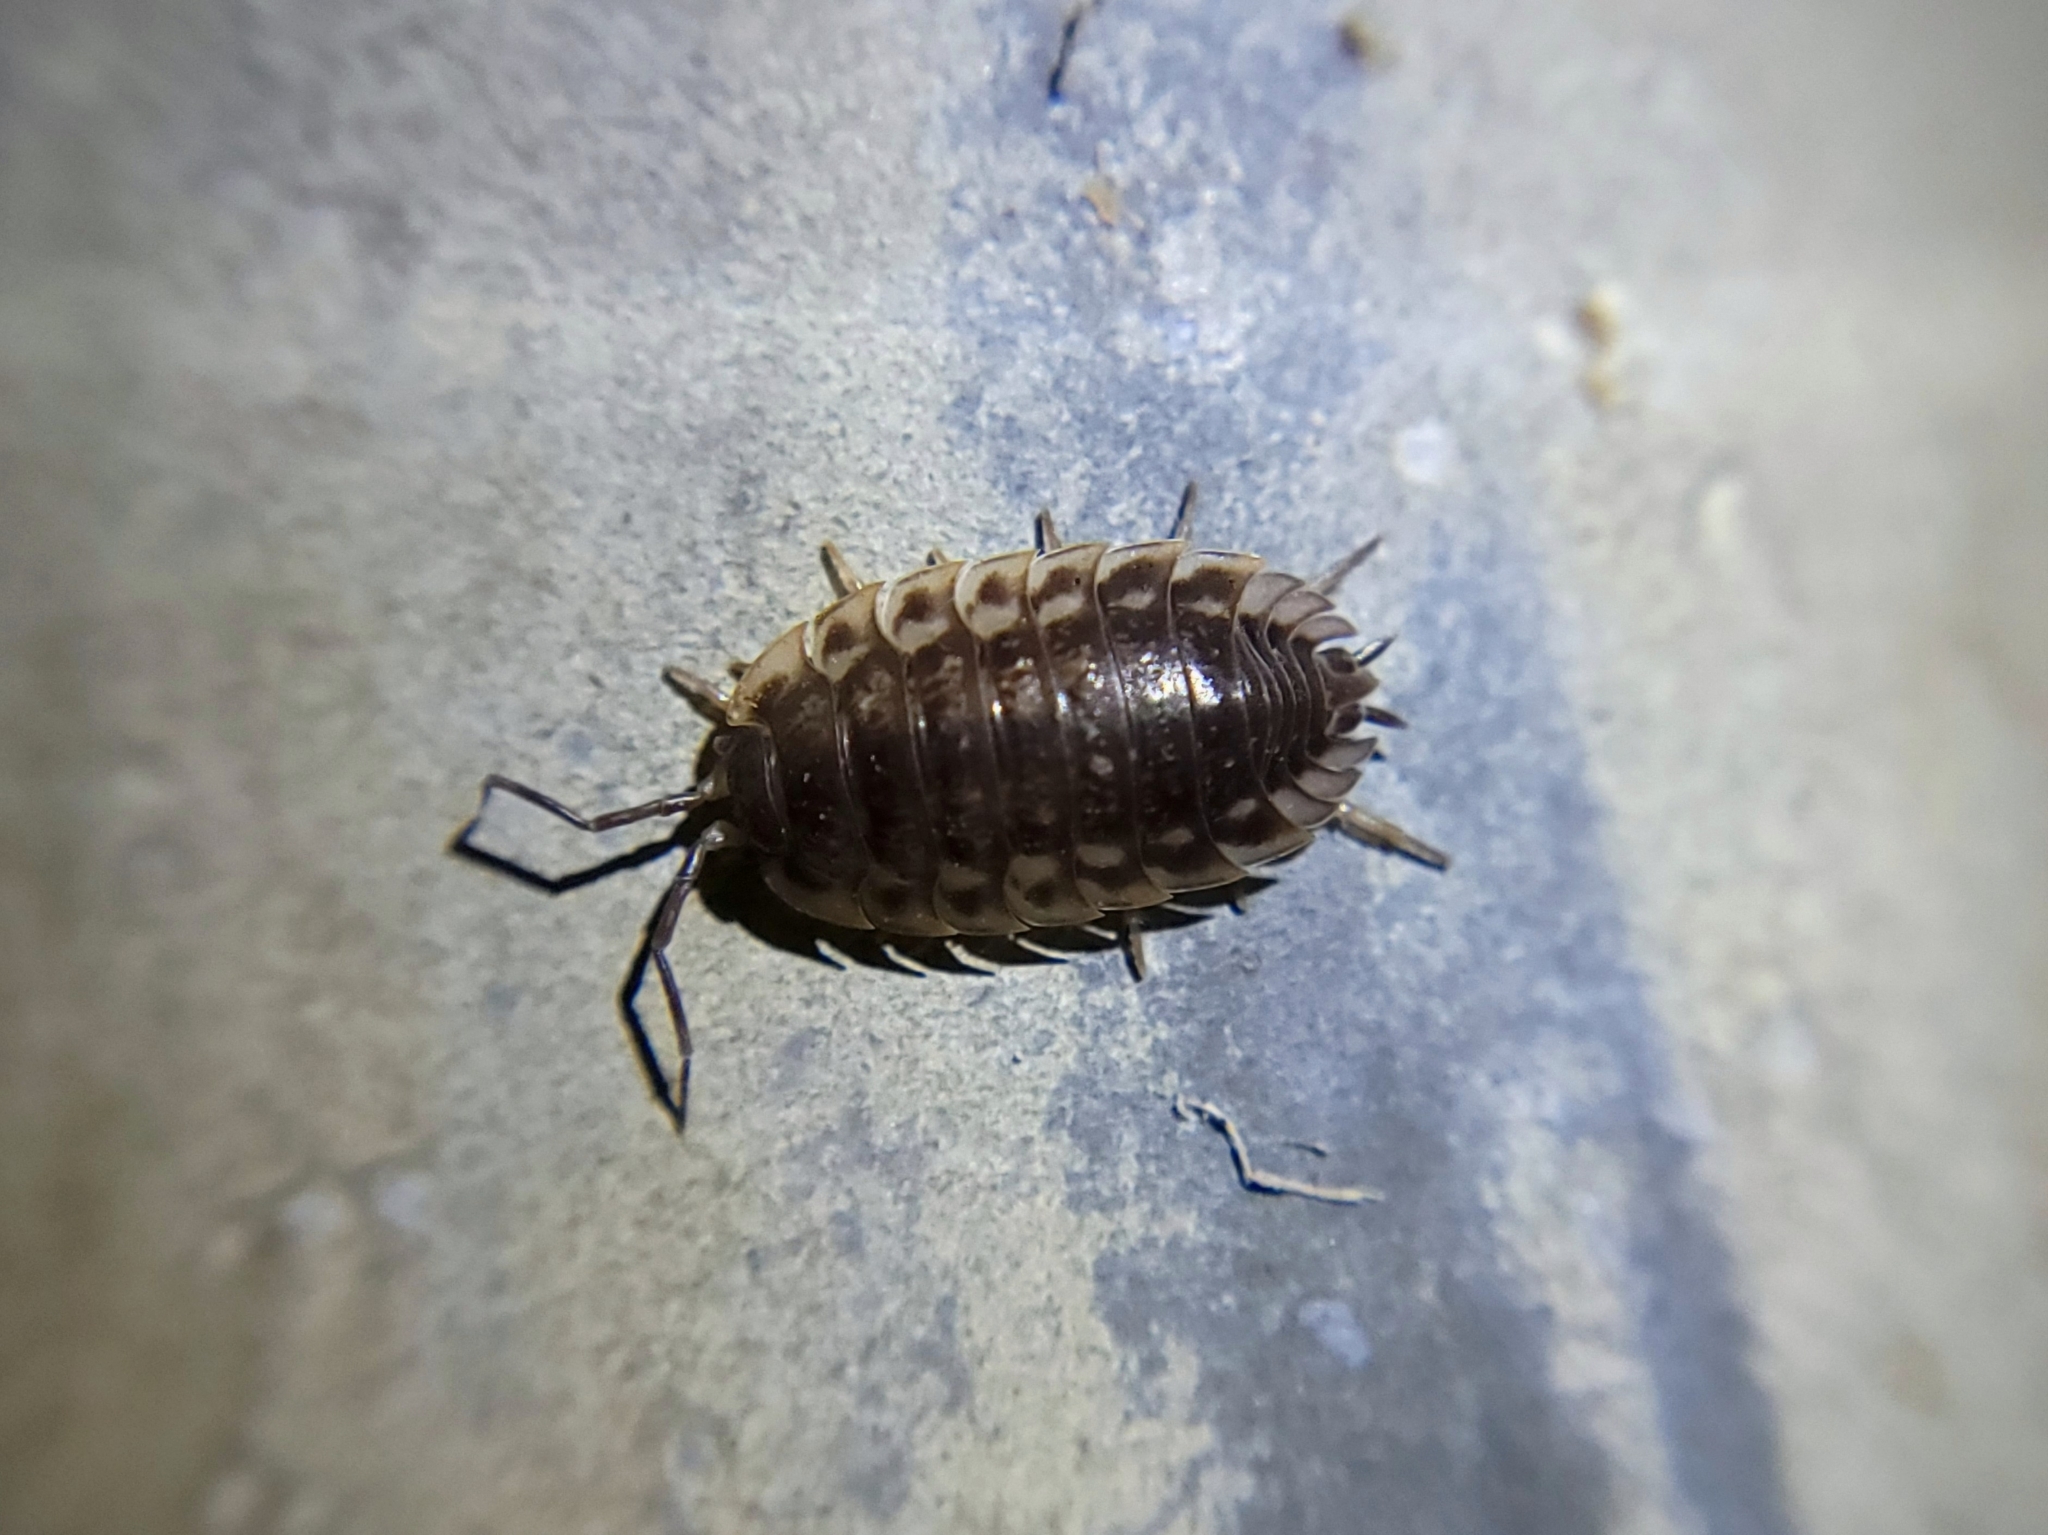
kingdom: Animalia
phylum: Arthropoda
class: Malacostraca
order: Isopoda
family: Oniscidae
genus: Oniscus
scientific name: Oniscus asellus
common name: Common shiny woodlouse
